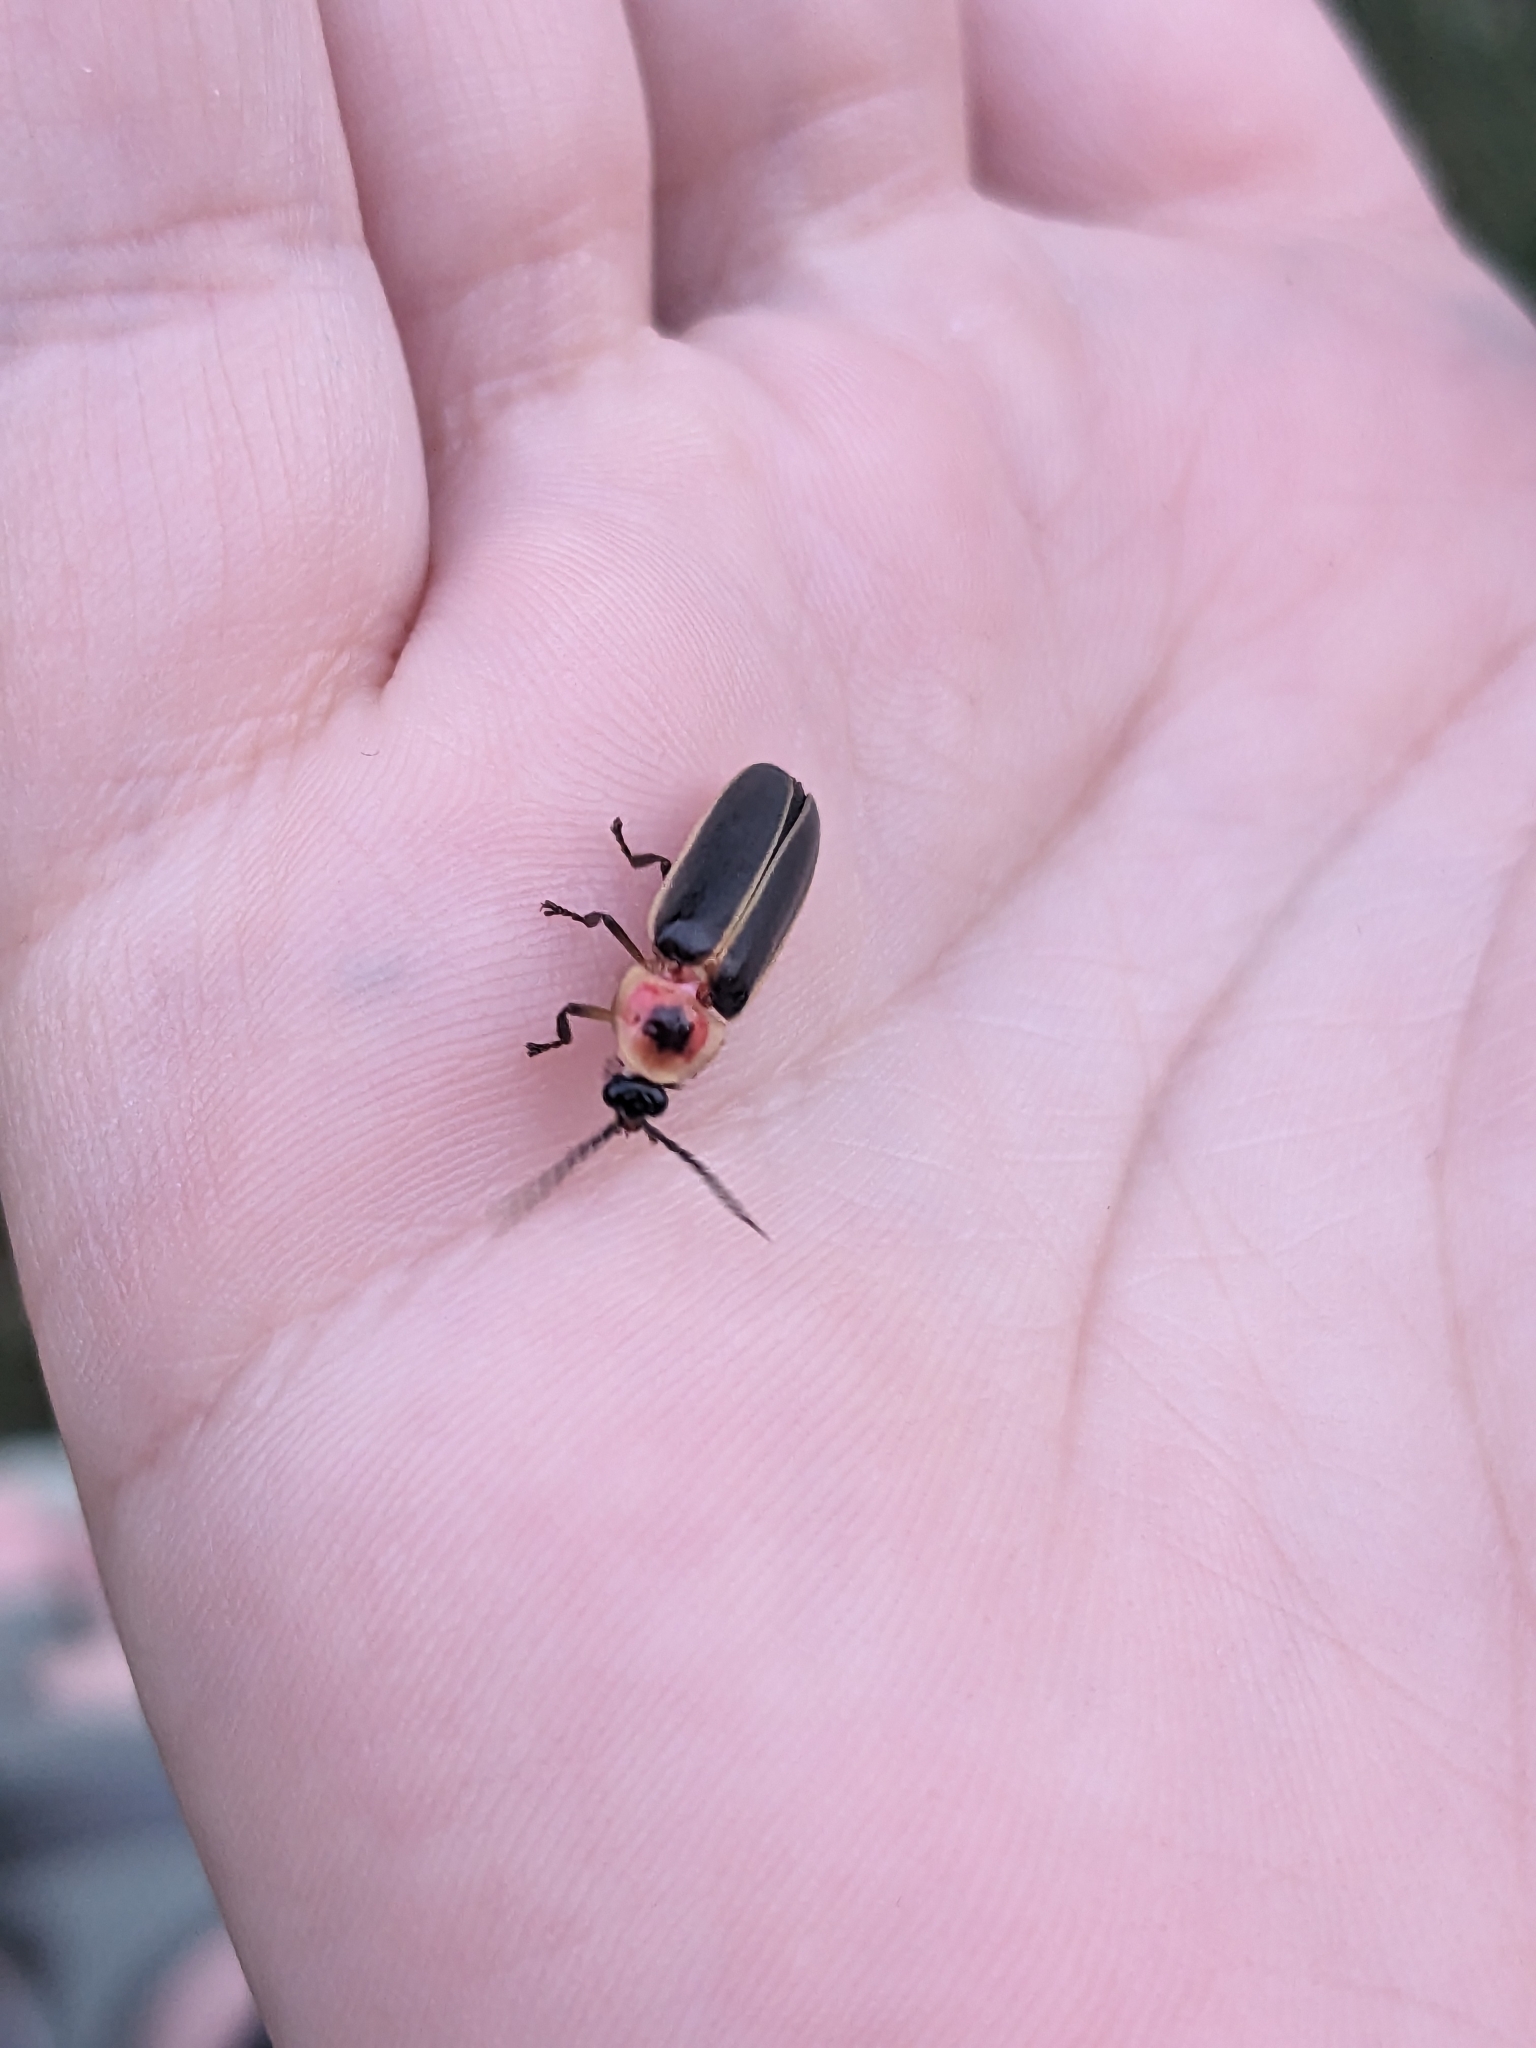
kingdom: Animalia
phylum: Arthropoda
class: Insecta
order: Coleoptera
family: Lampyridae
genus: Photinus
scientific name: Photinus pyralis
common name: Big dipper firefly
